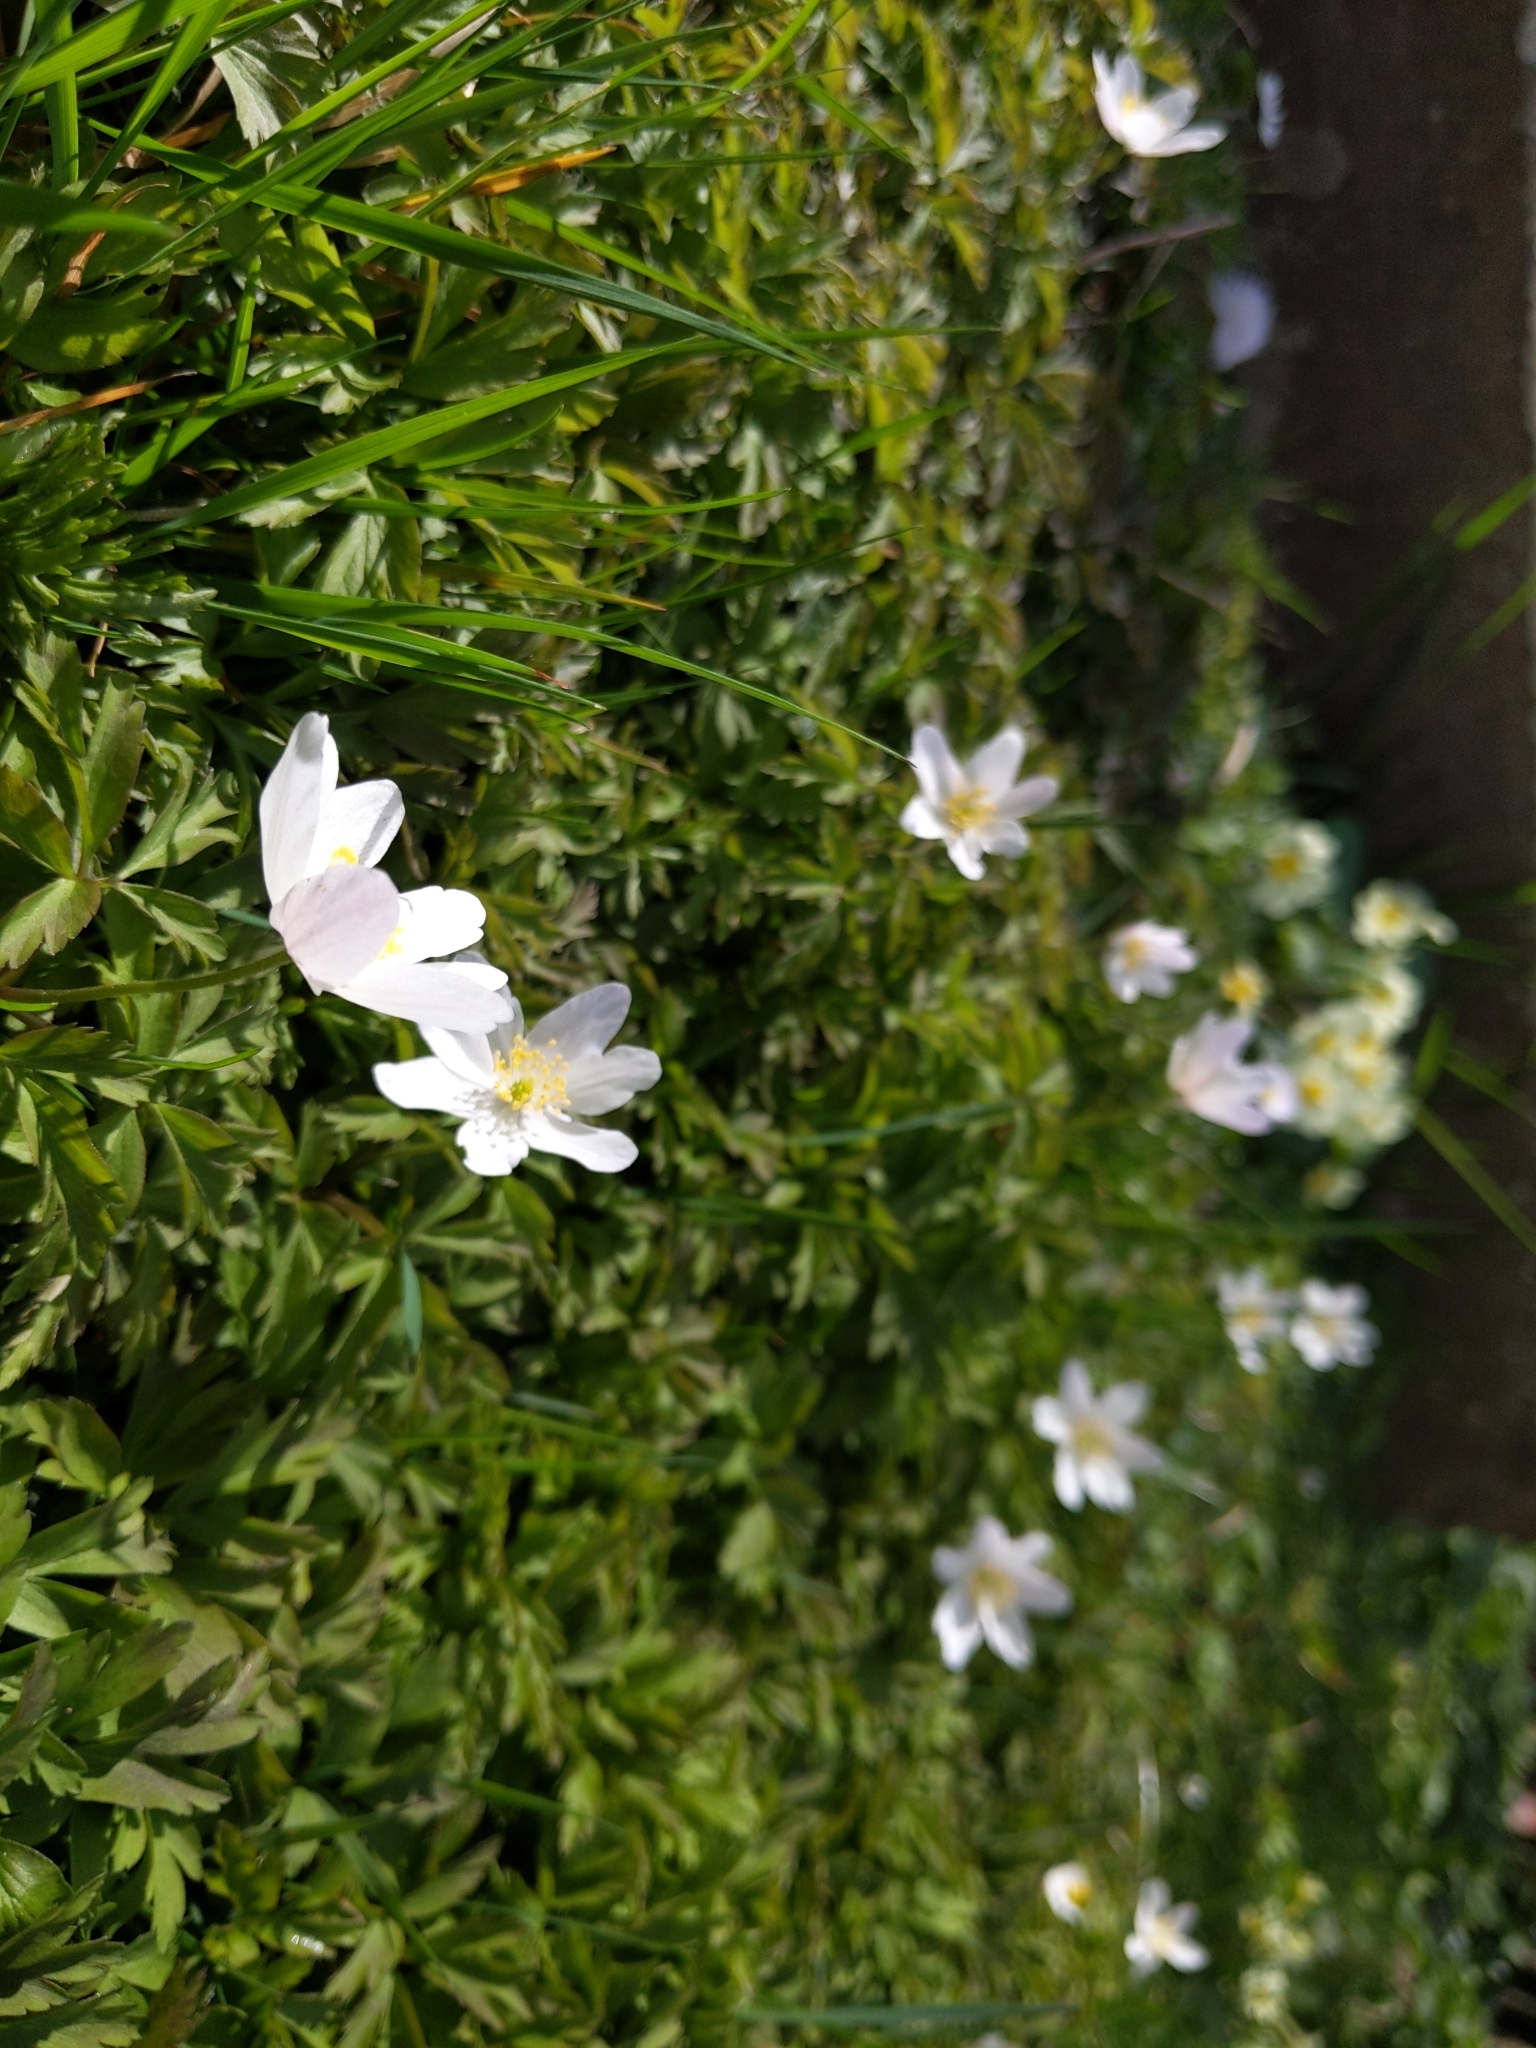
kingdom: Plantae
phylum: Tracheophyta
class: Magnoliopsida
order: Ranunculales
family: Ranunculaceae
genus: Anemone
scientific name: Anemone nemorosa
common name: Wood anemone
